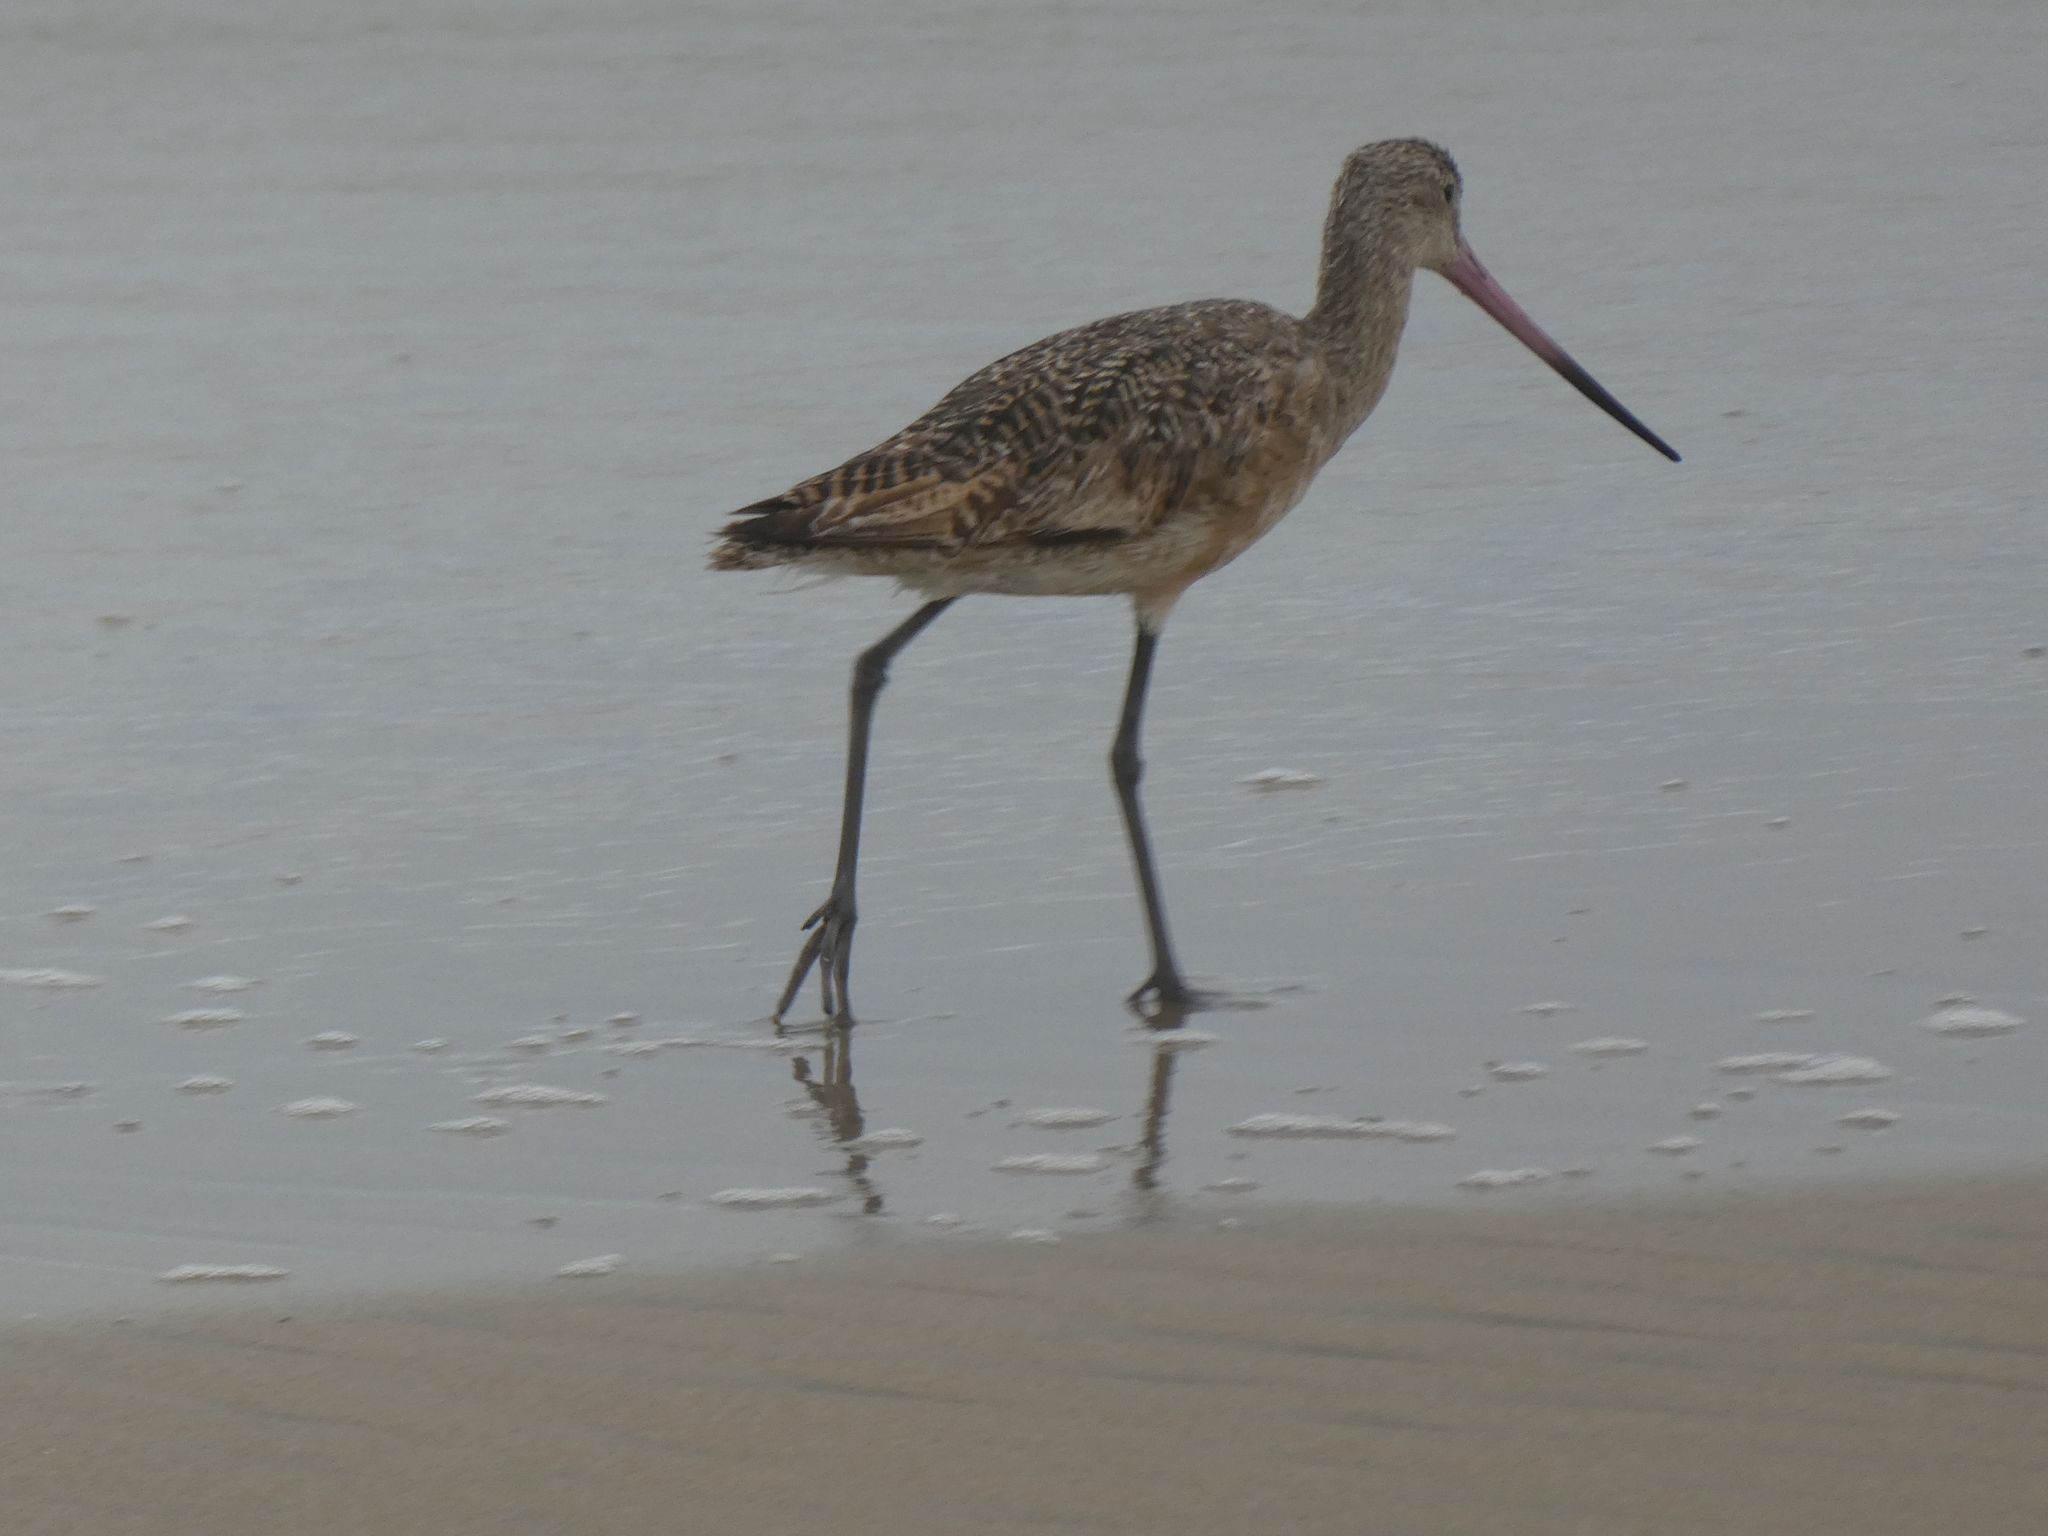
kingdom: Animalia
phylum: Chordata
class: Aves
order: Charadriiformes
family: Scolopacidae
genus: Limosa
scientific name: Limosa fedoa
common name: Marbled godwit
